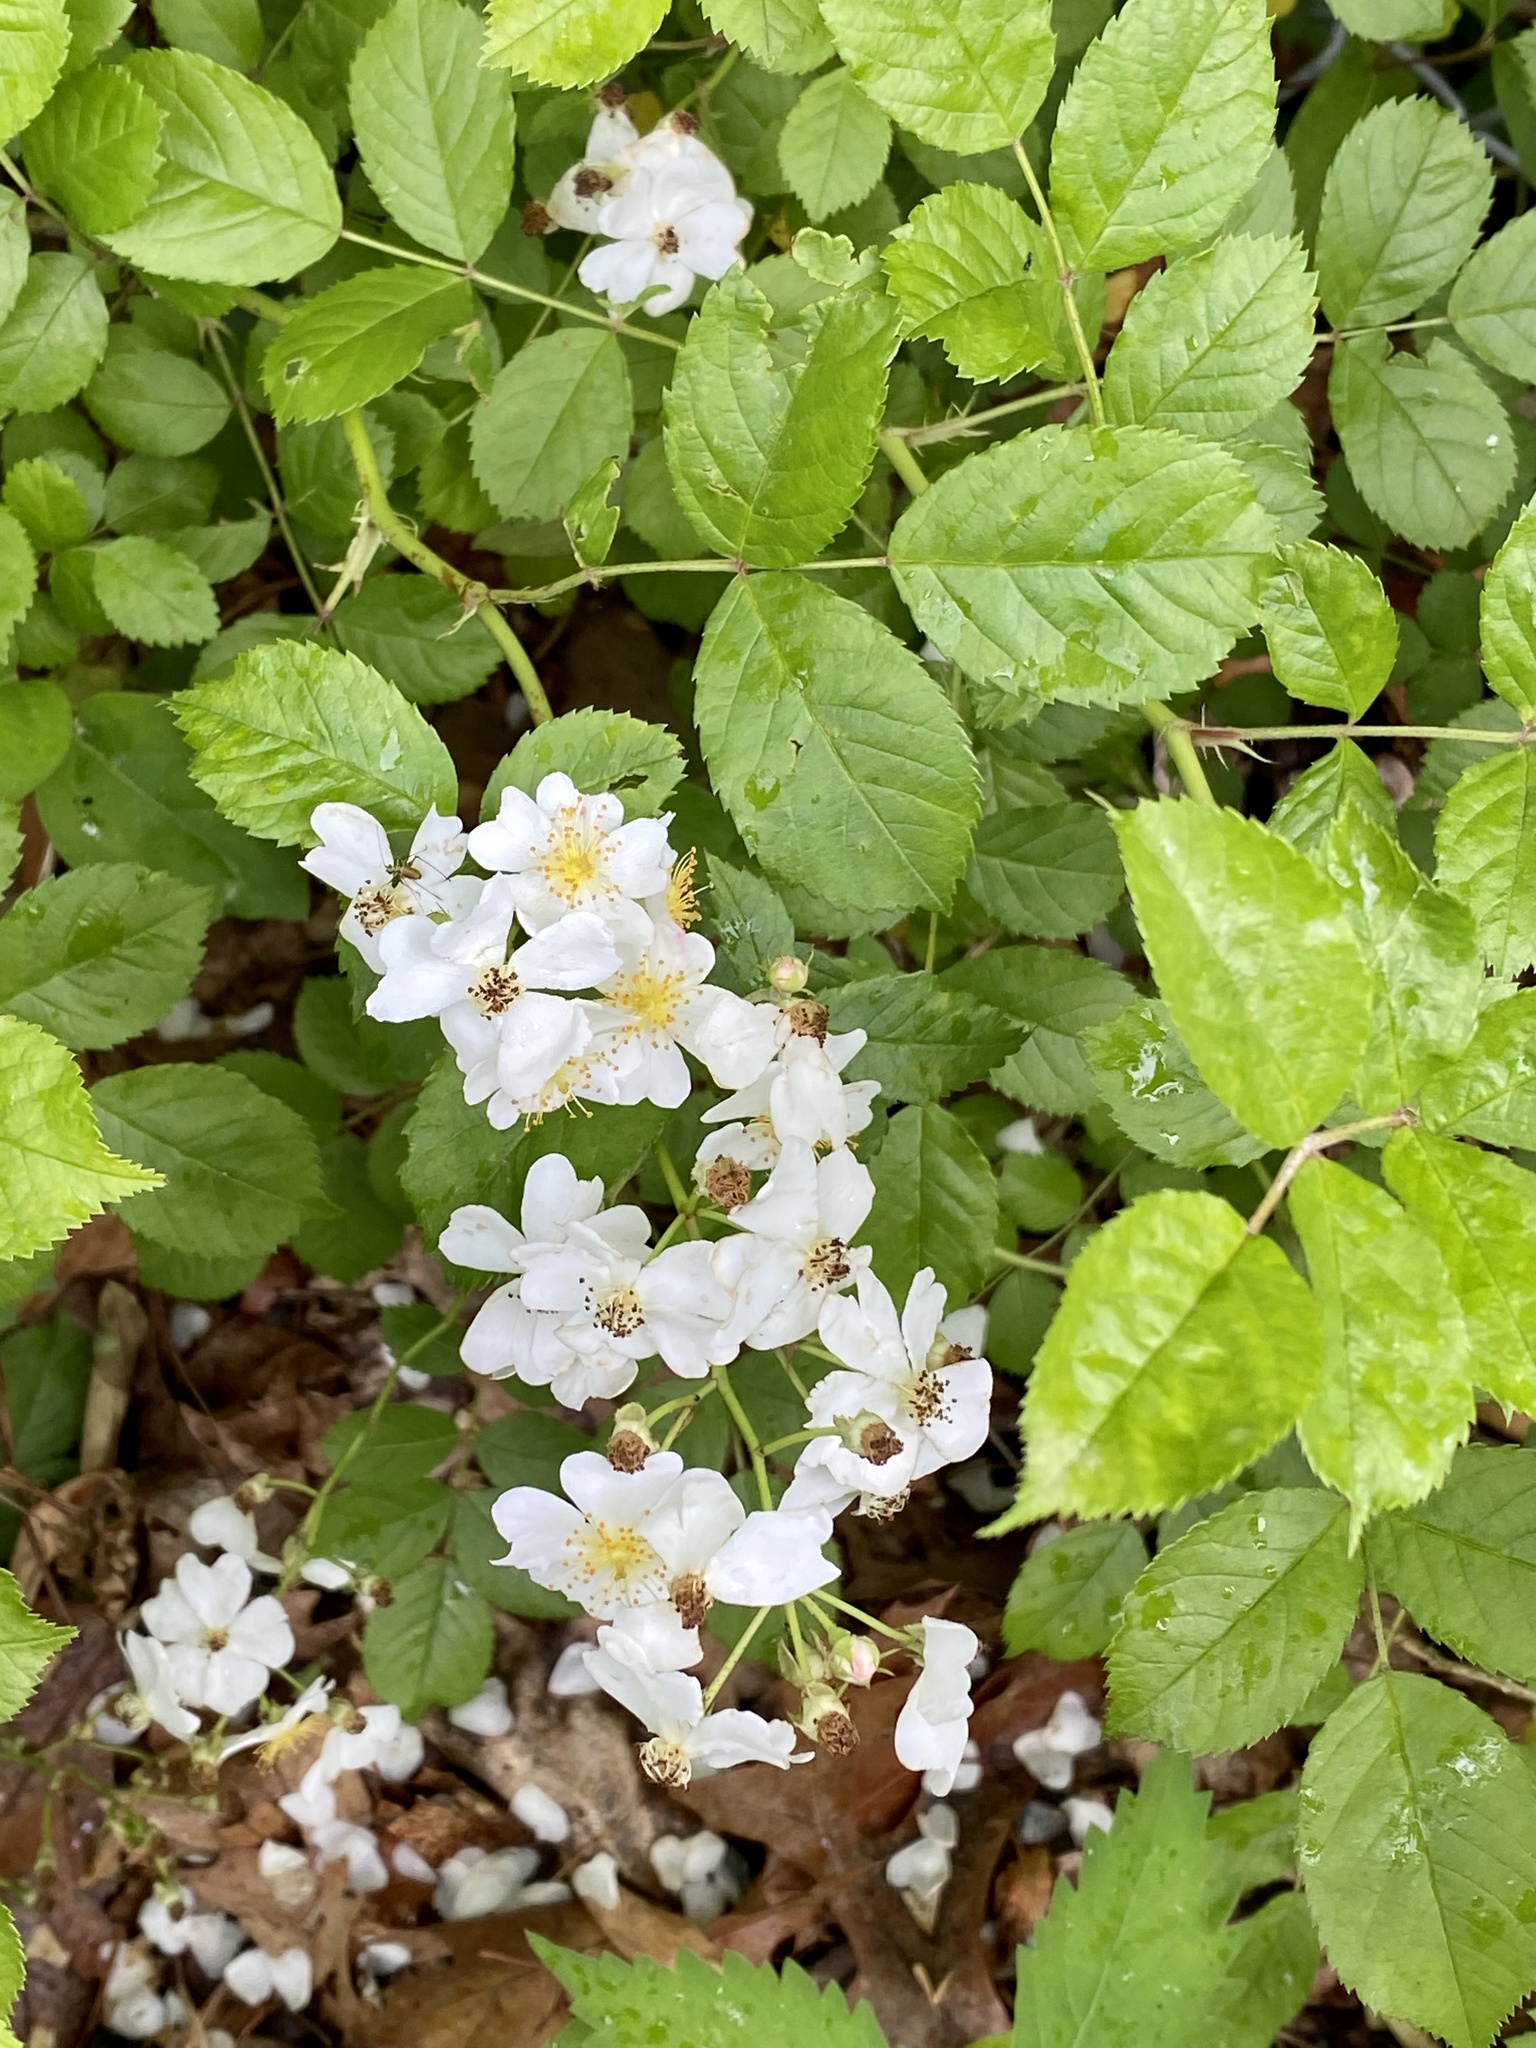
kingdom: Plantae
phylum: Tracheophyta
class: Magnoliopsida
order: Rosales
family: Rosaceae
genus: Rosa
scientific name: Rosa multiflora
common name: Multiflora rose
